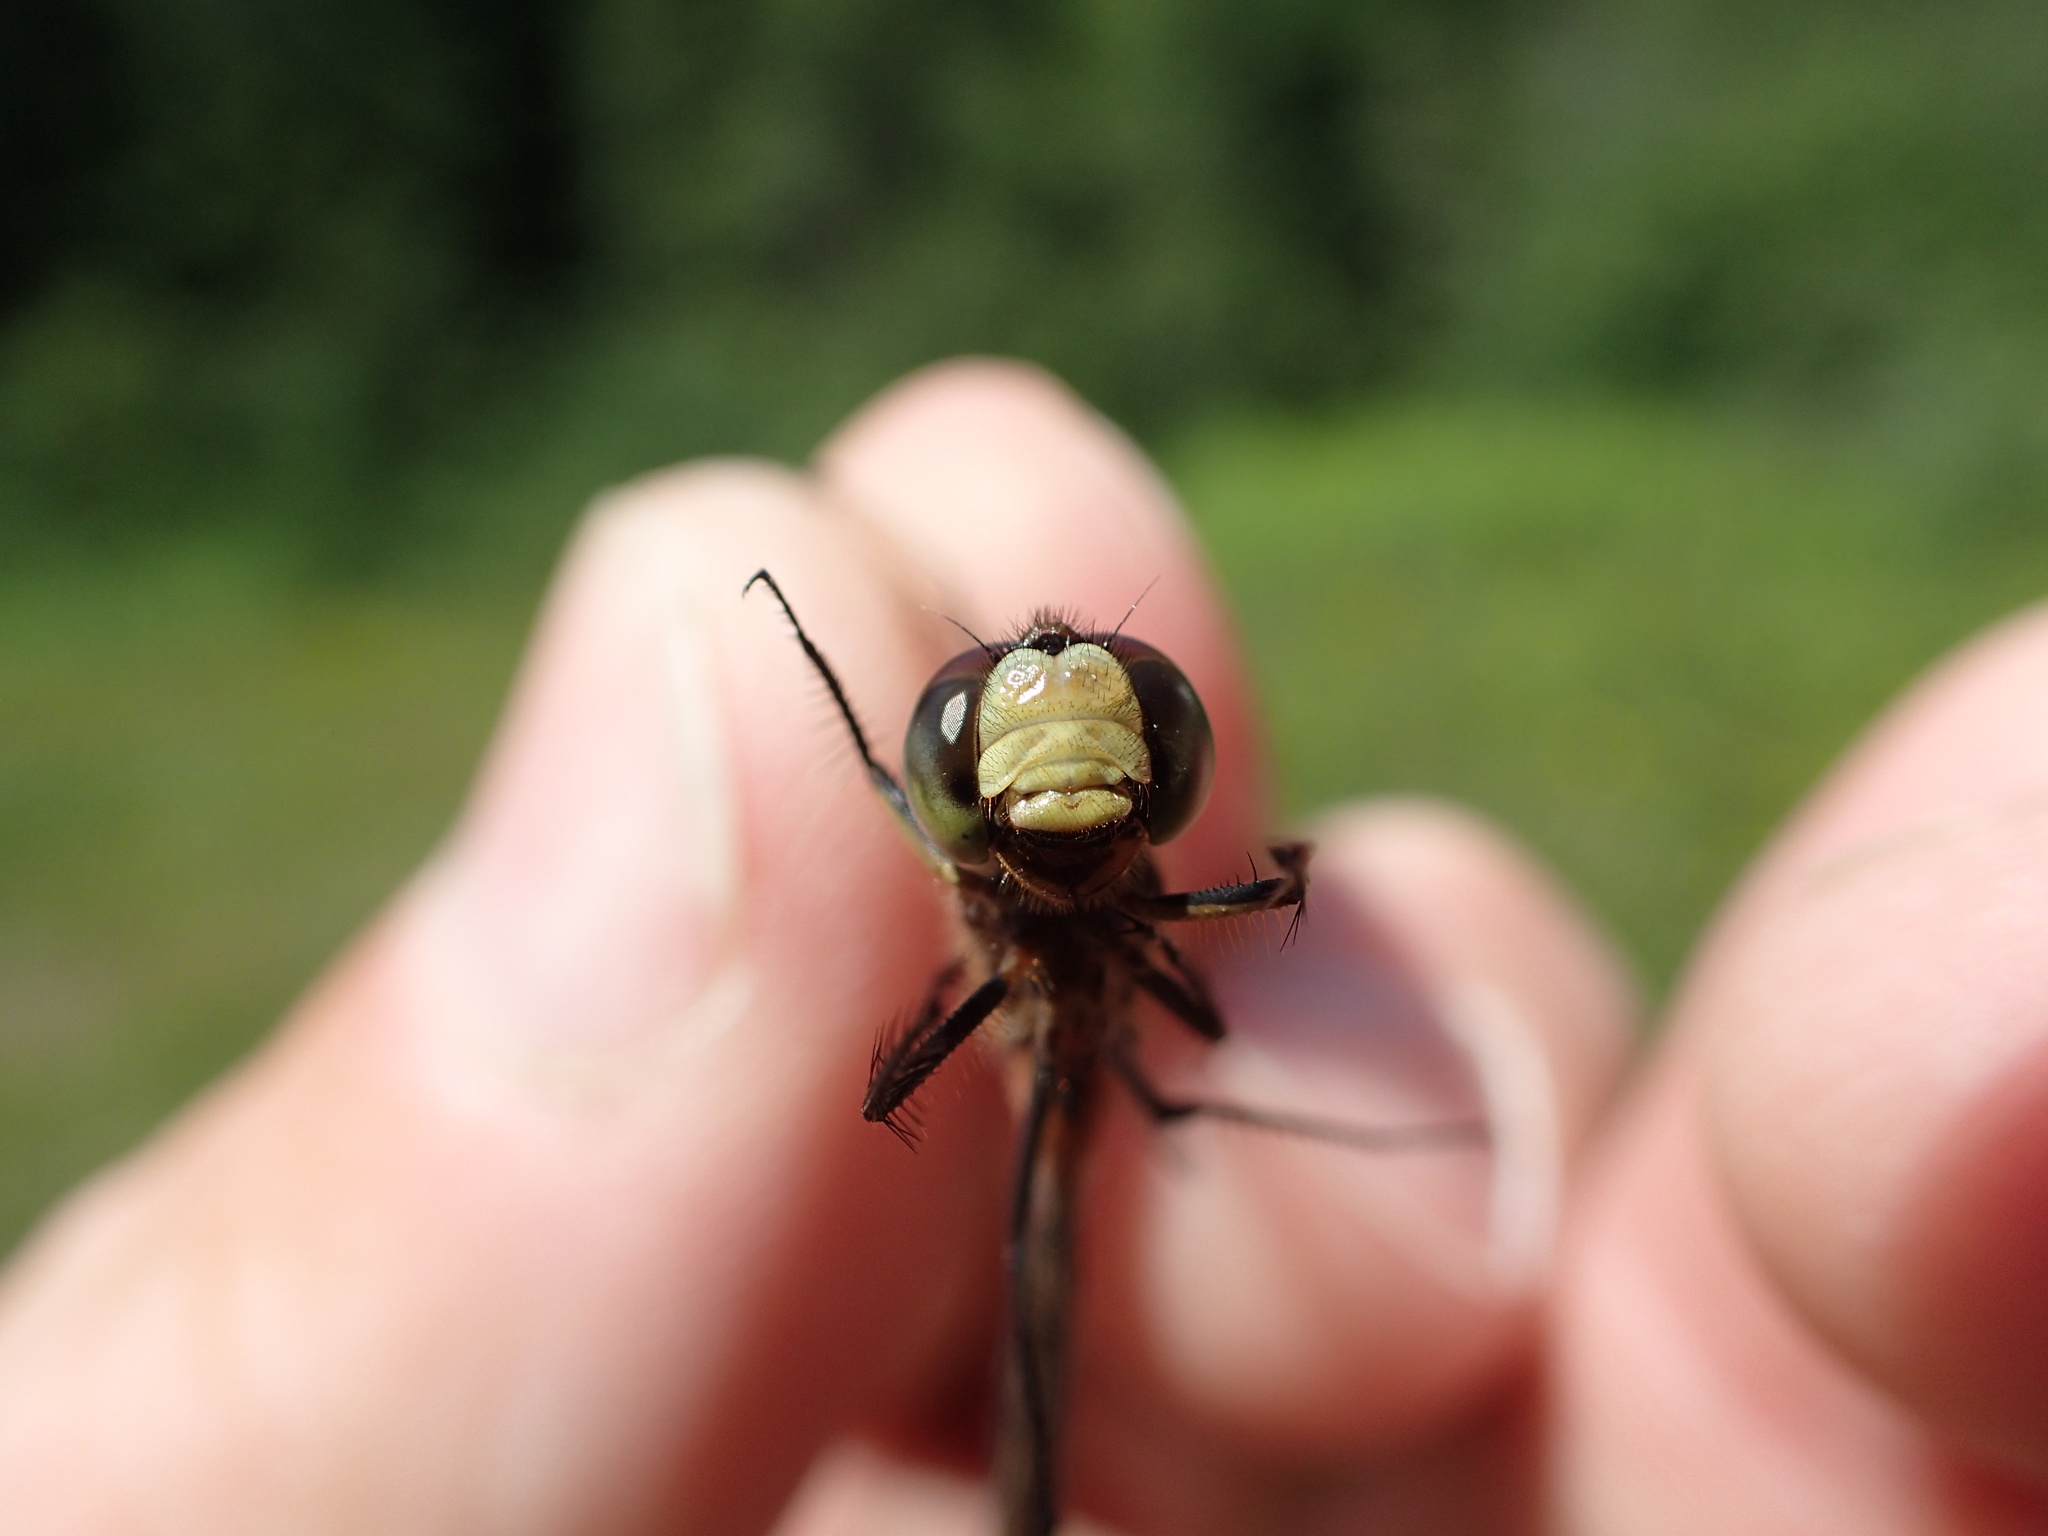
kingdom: Animalia
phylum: Arthropoda
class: Insecta
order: Odonata
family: Libellulidae
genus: Sympetrum
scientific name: Sympetrum internum
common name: Cherry-faced meadowhawk
